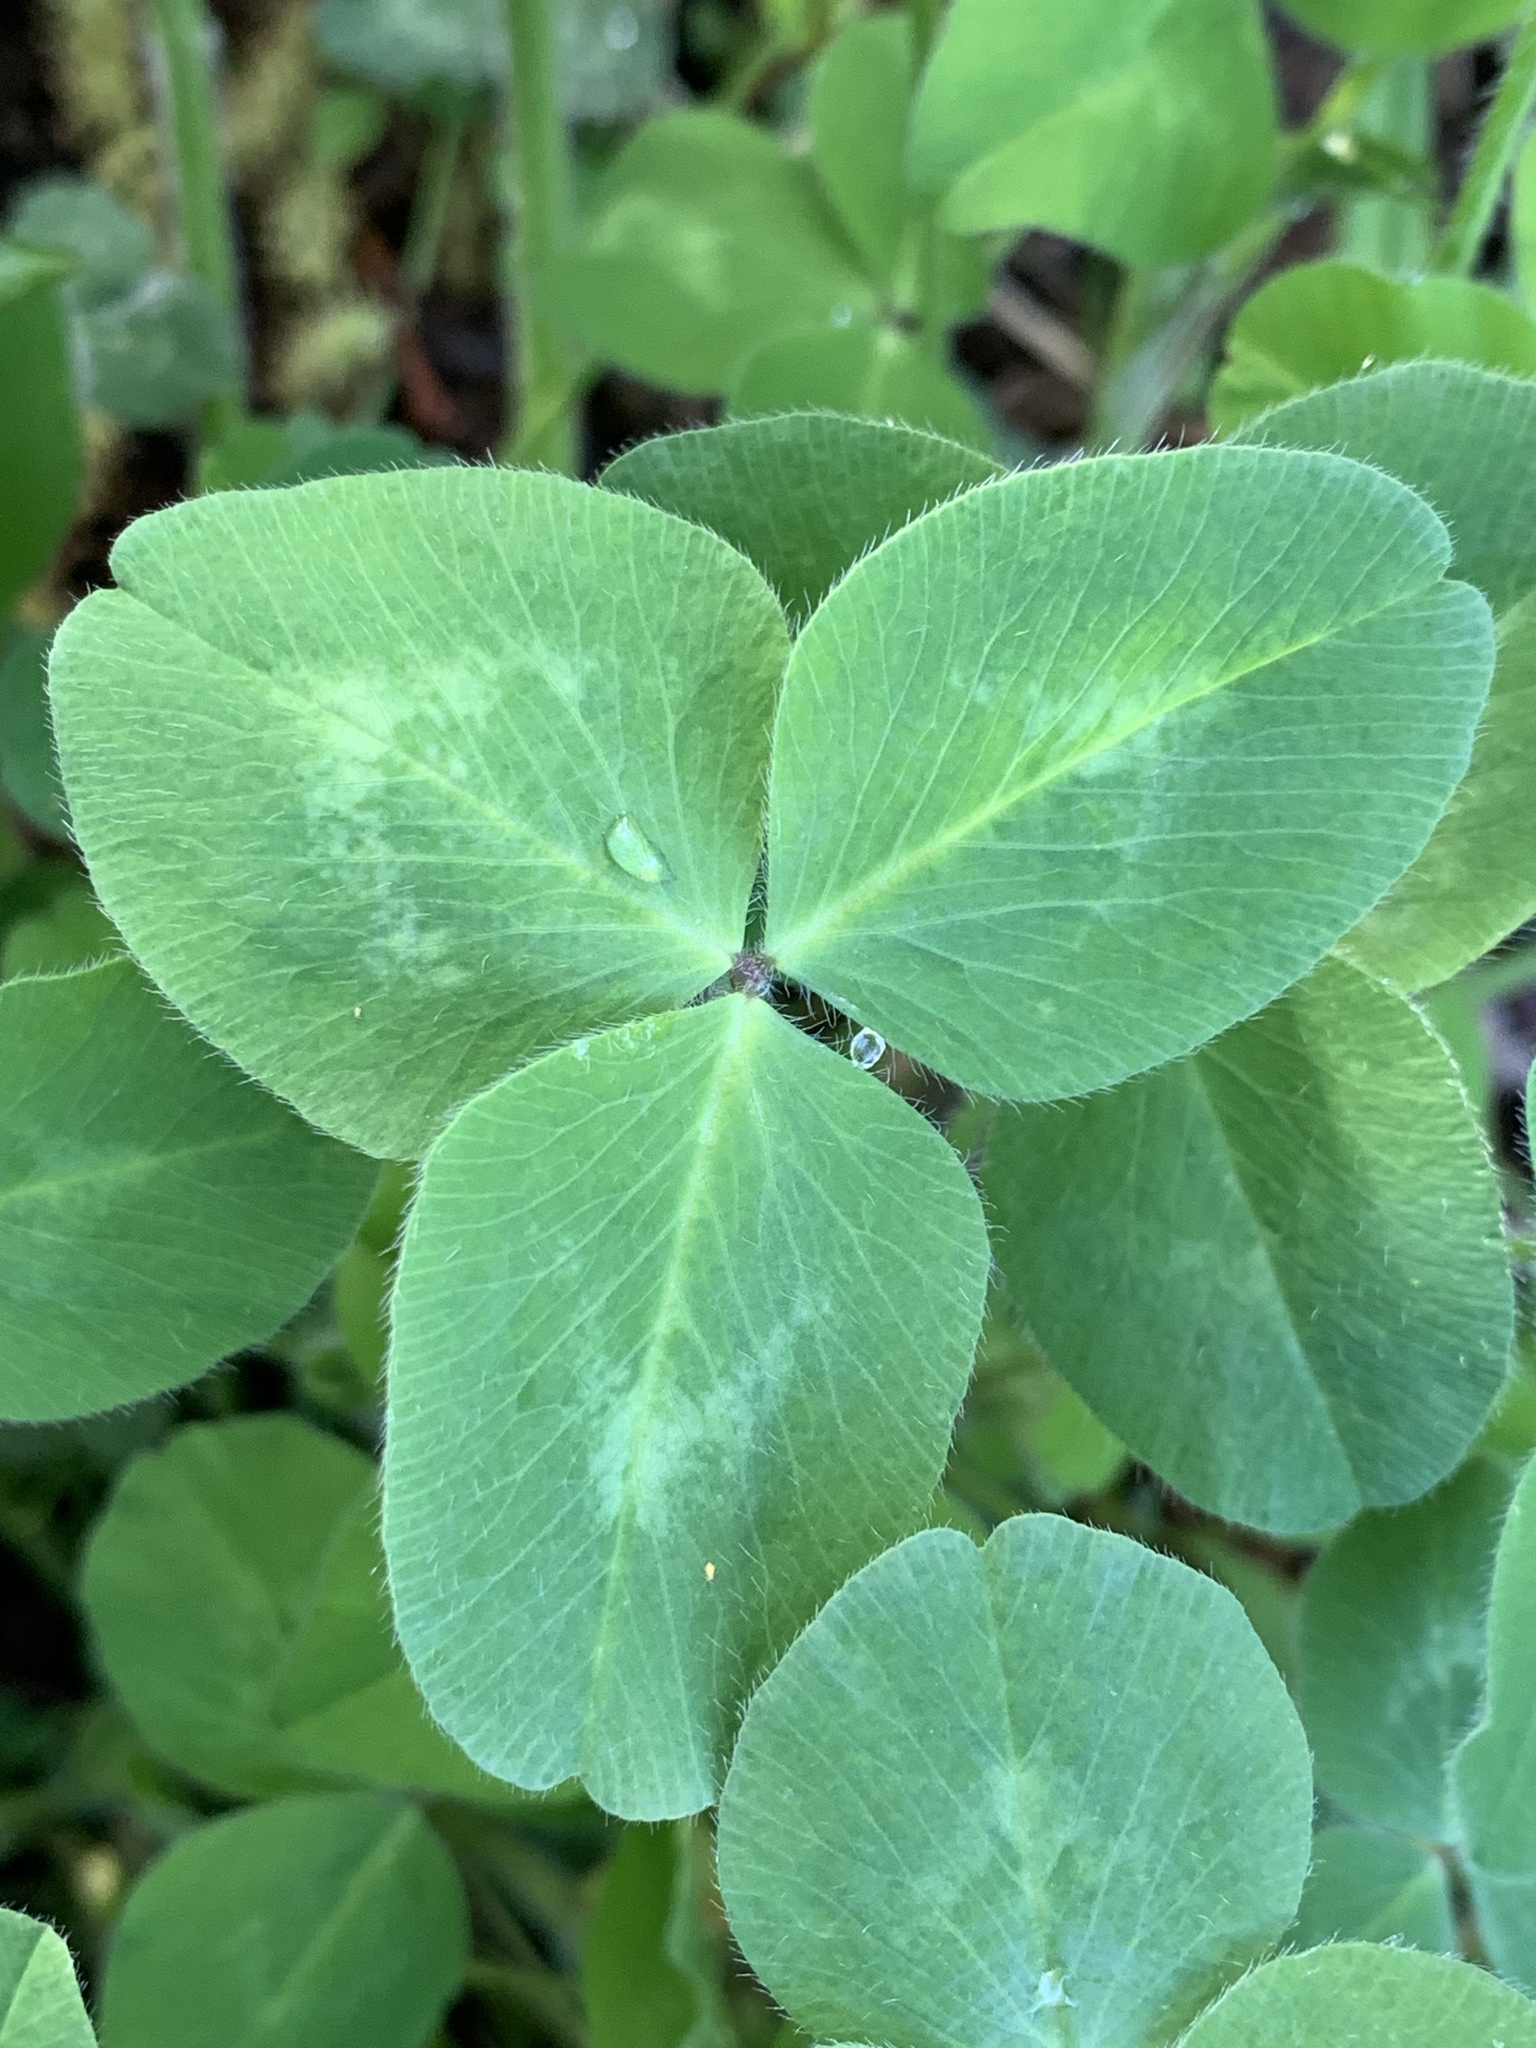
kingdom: Plantae
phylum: Tracheophyta
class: Magnoliopsida
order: Fabales
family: Fabaceae
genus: Trifolium
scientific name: Trifolium pratense
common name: Red clover
